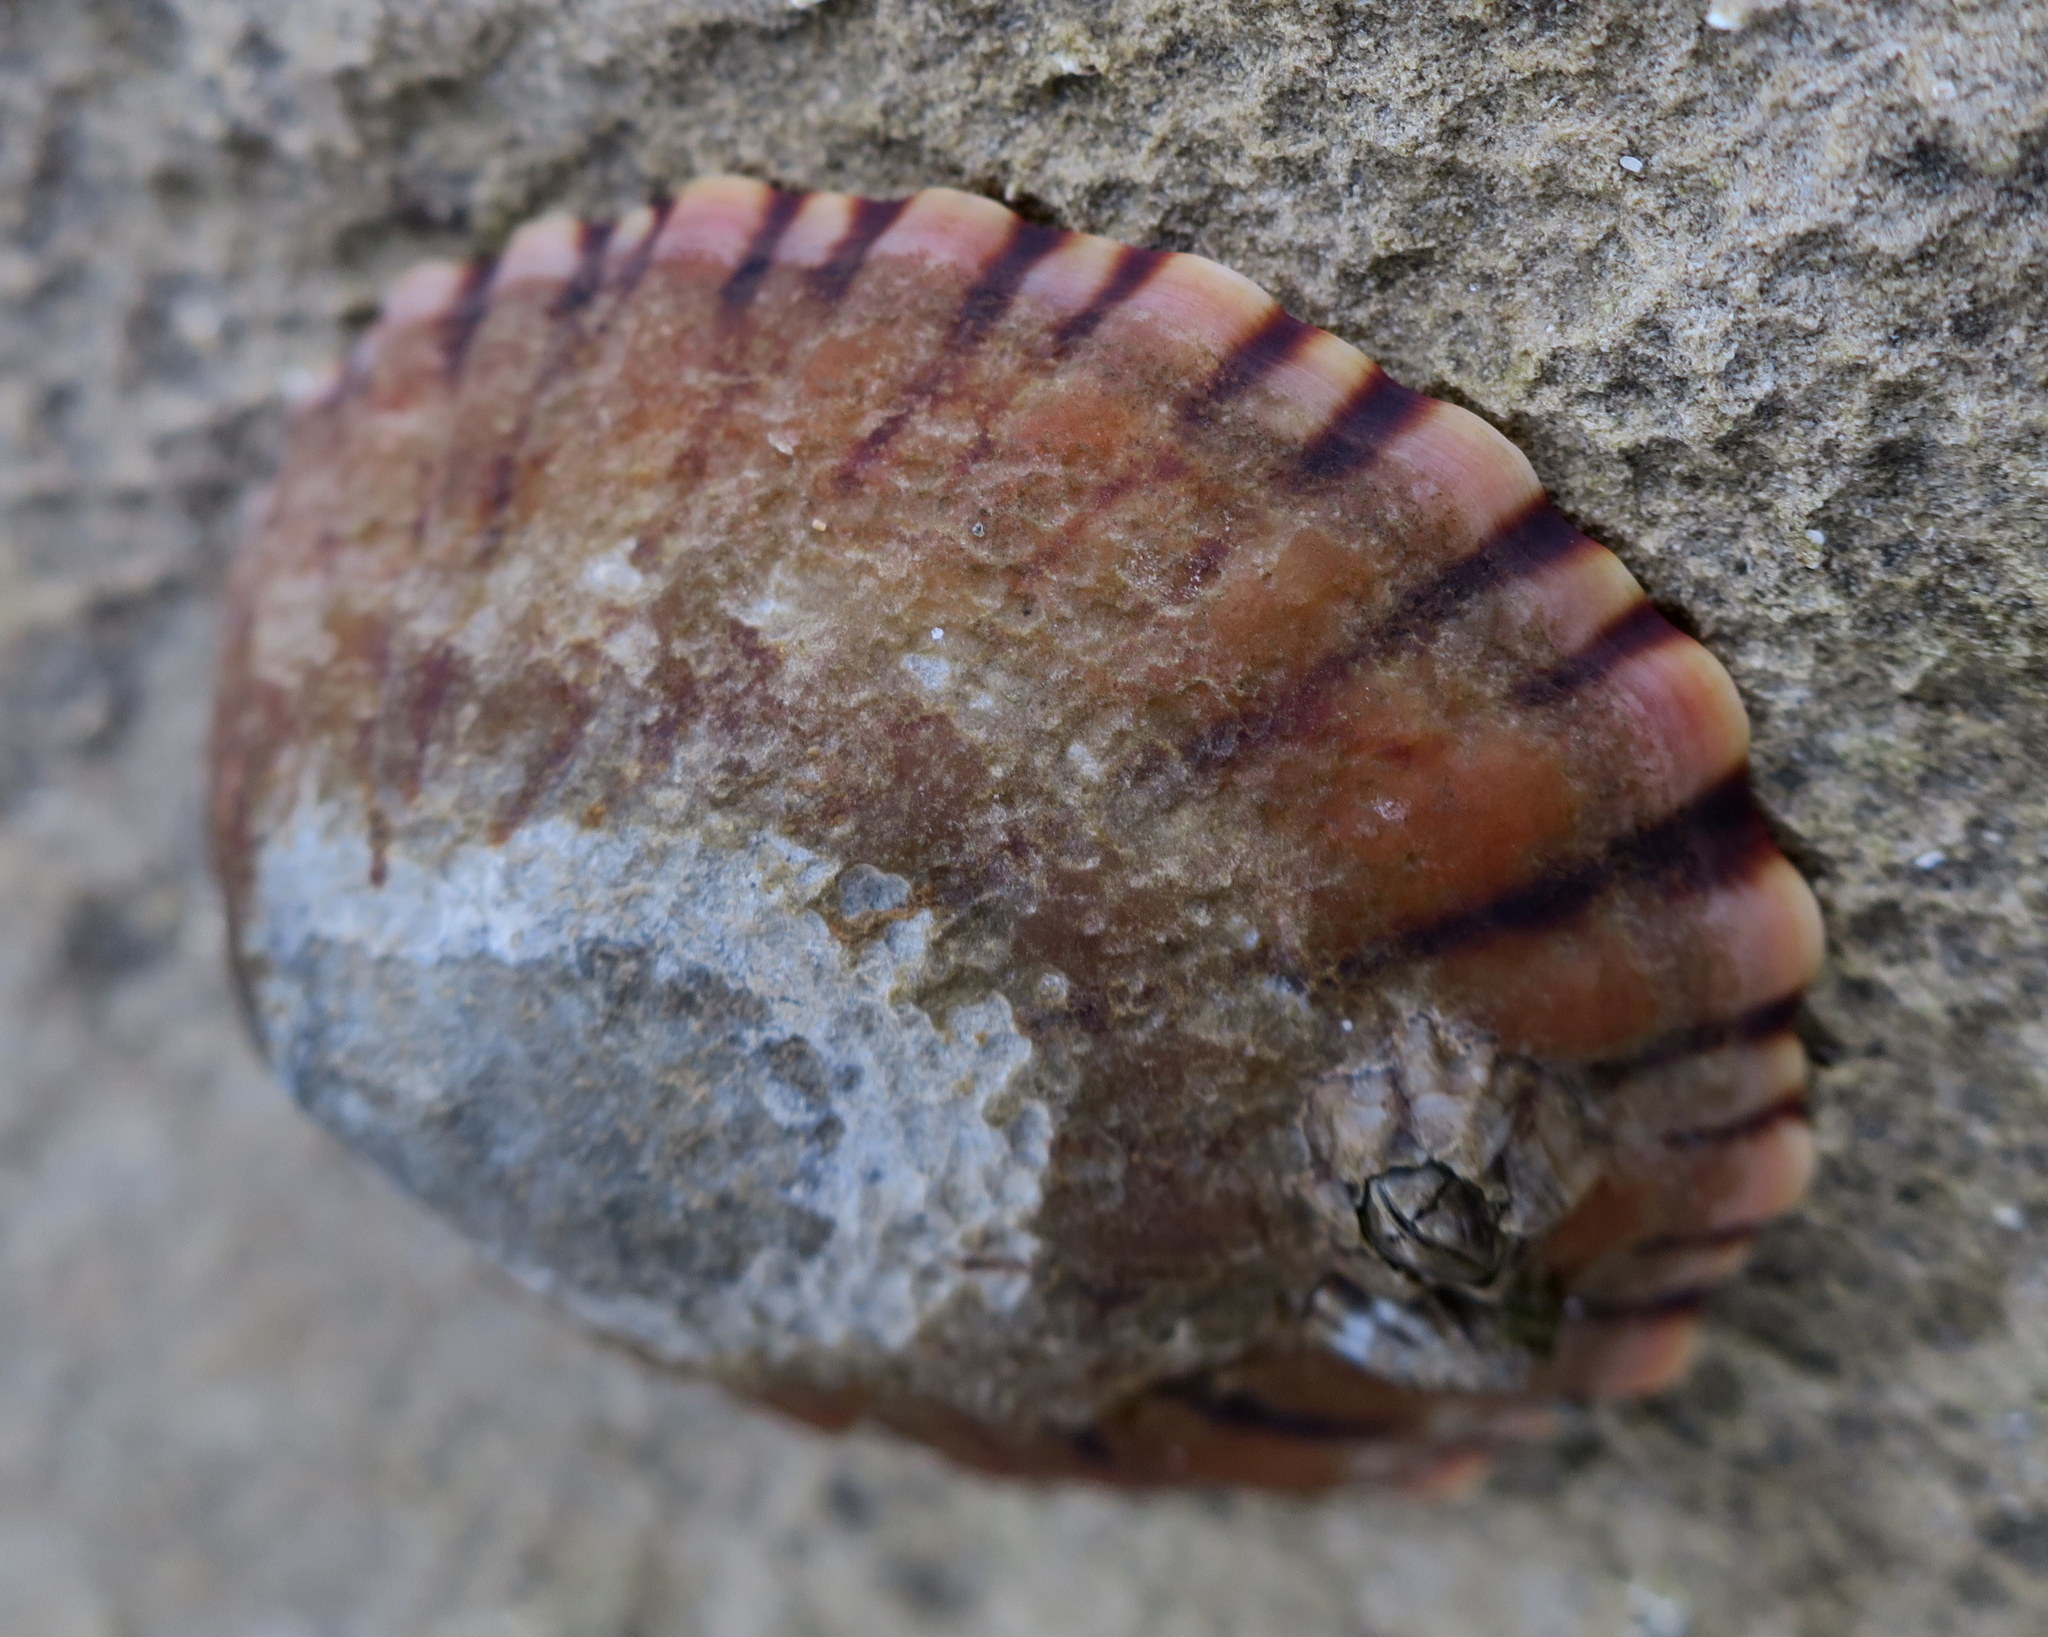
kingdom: Animalia
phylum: Mollusca
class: Gastropoda
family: Nacellidae
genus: Cellana
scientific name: Cellana solida
